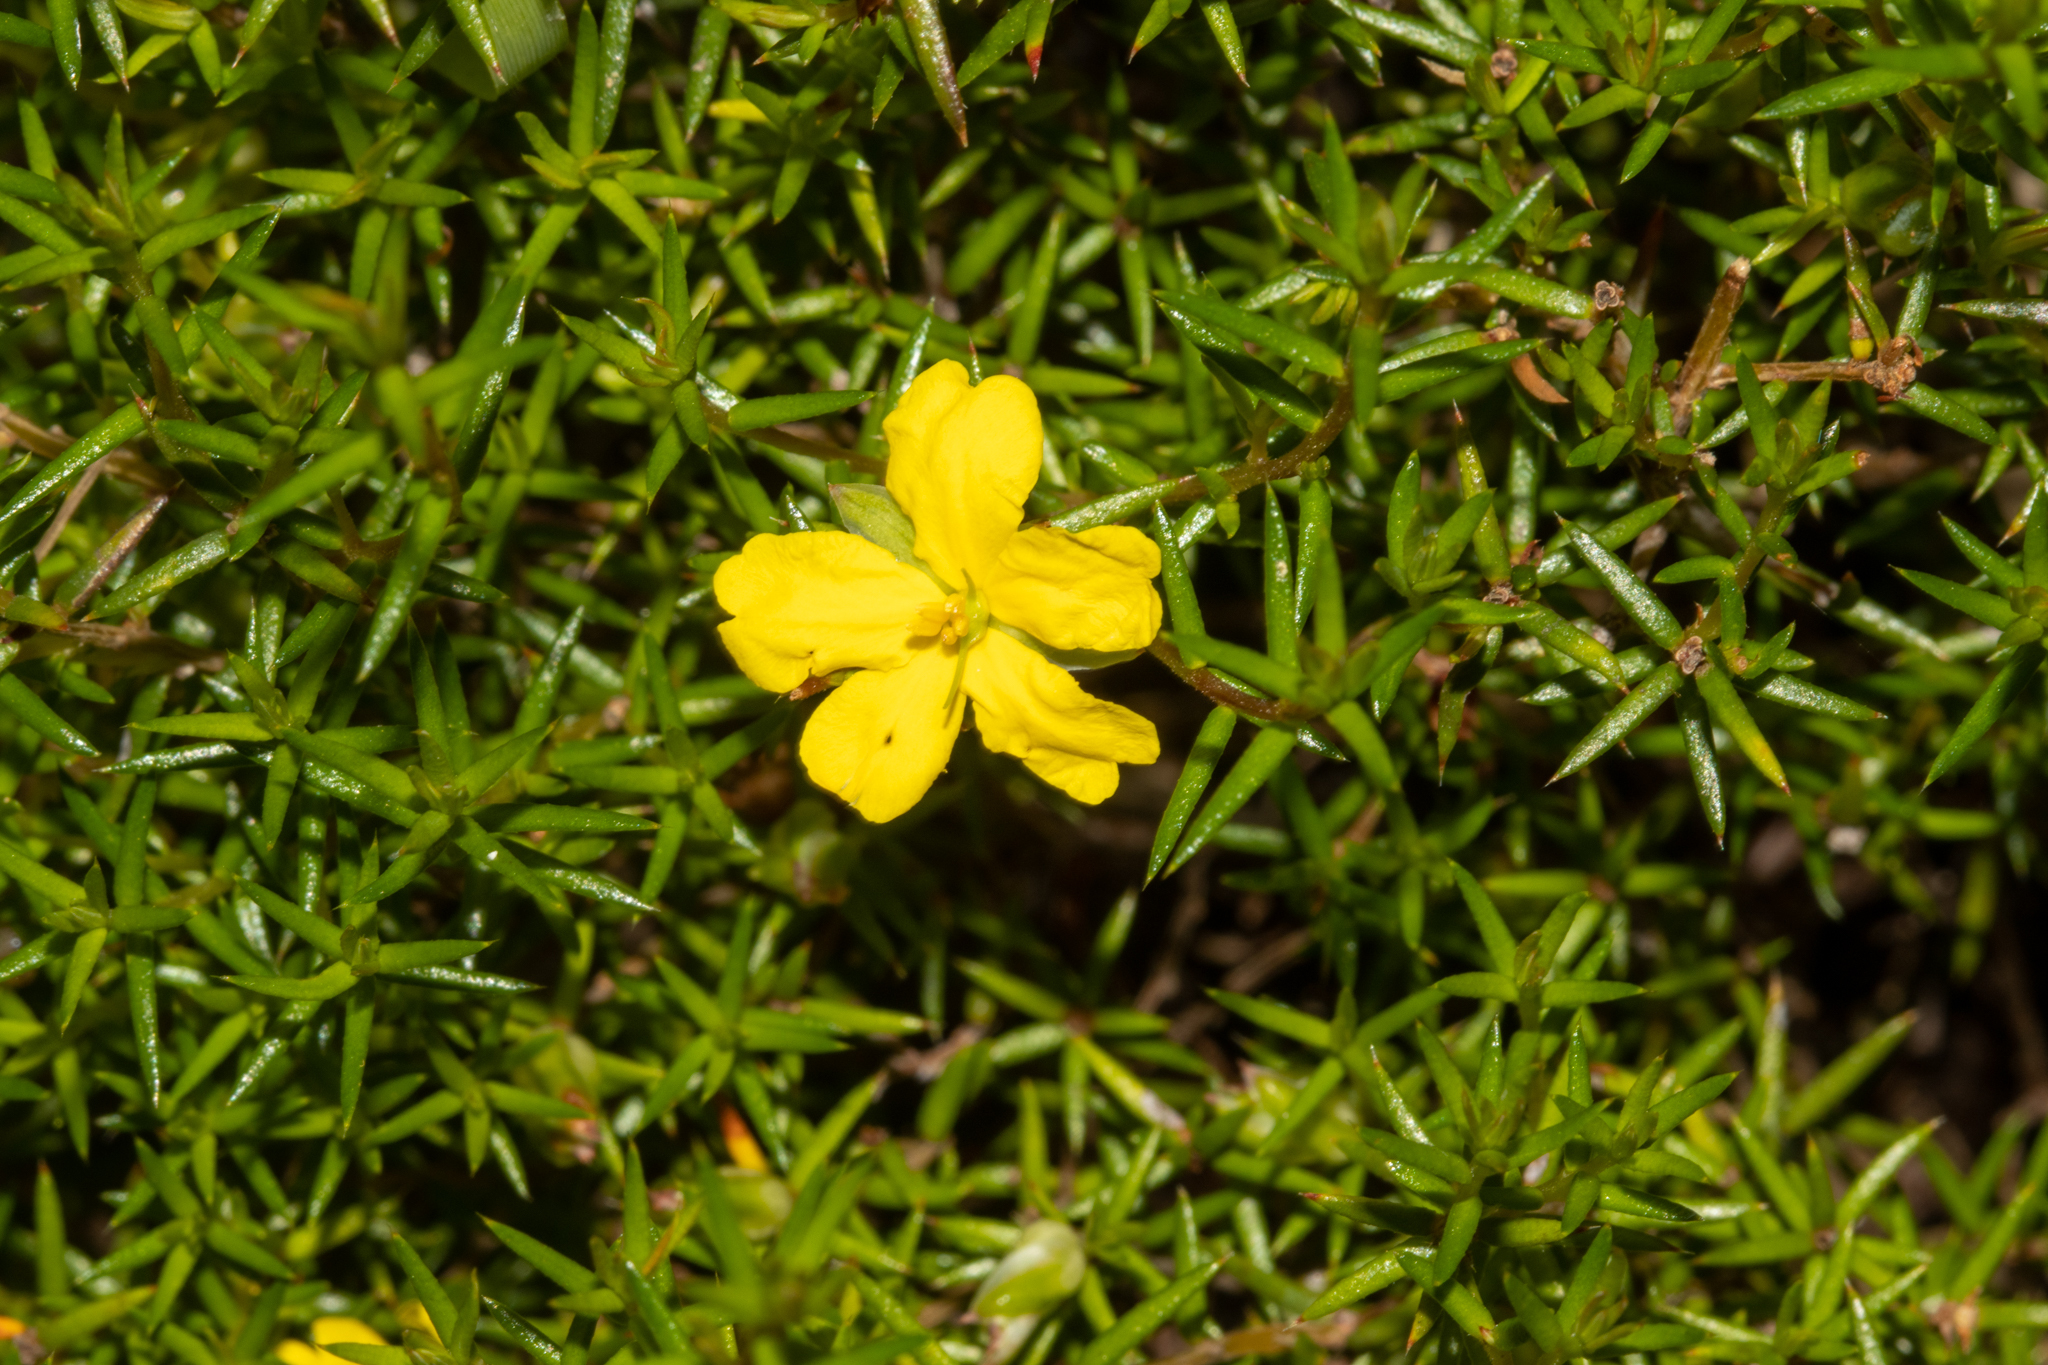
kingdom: Plantae
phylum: Tracheophyta
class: Magnoliopsida
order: Dilleniales
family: Dilleniaceae
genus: Hibbertia
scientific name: Hibbertia exutiacies
